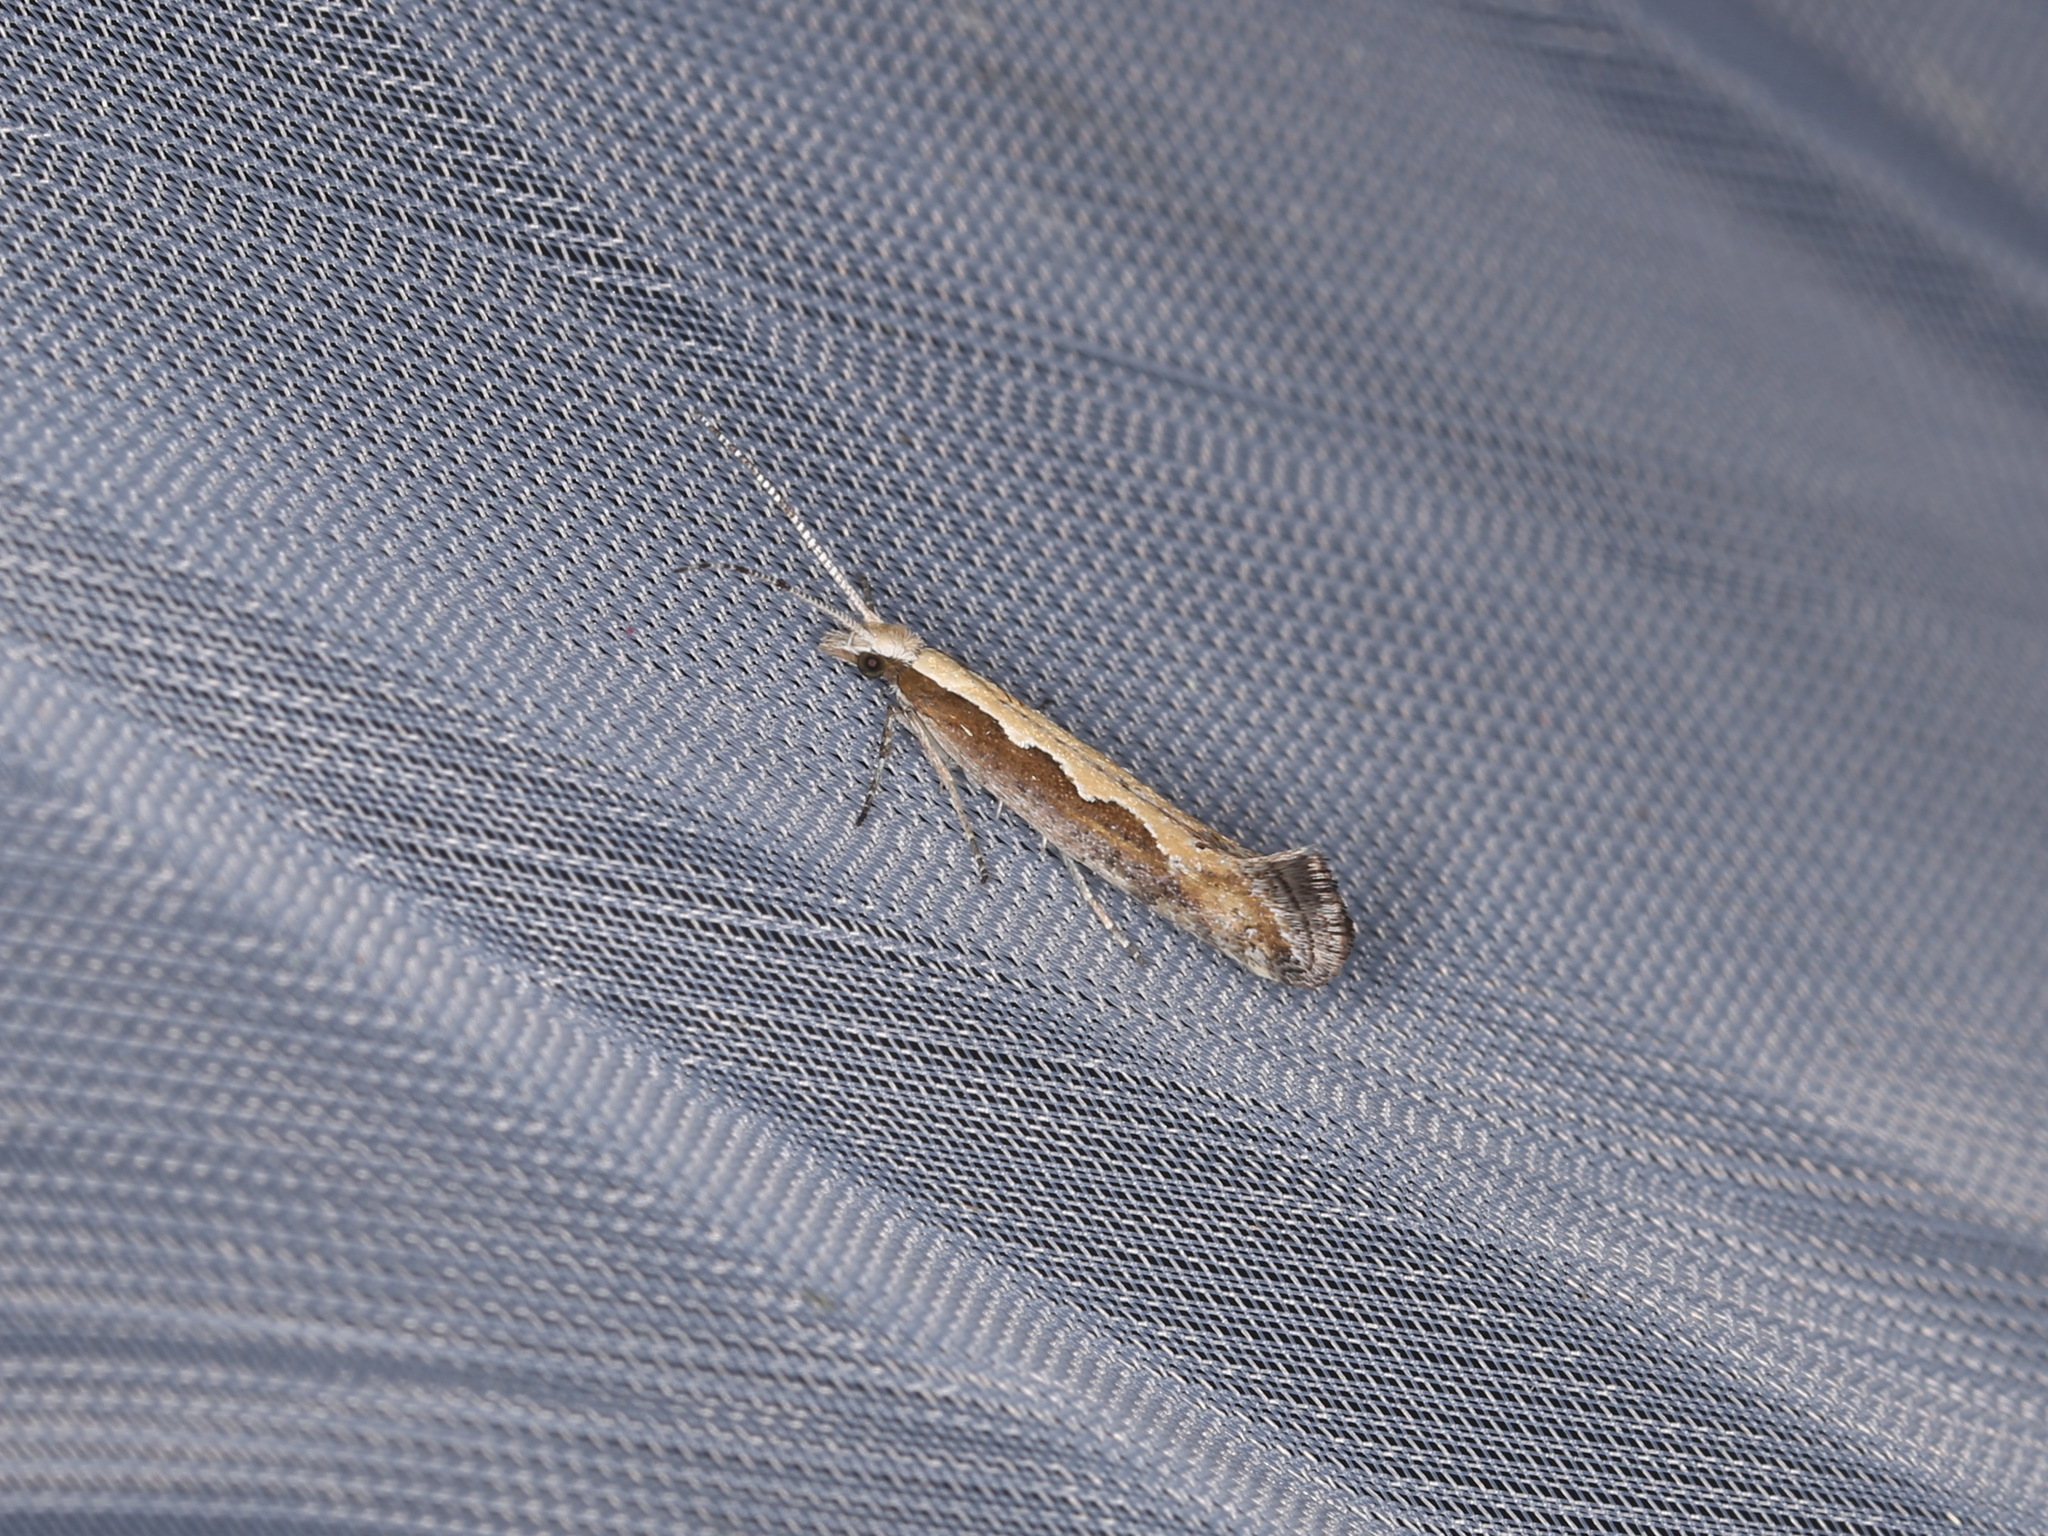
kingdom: Animalia
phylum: Arthropoda
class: Insecta
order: Lepidoptera
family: Plutellidae
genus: Plutella
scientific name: Plutella xylostella
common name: Diamond-back moth
